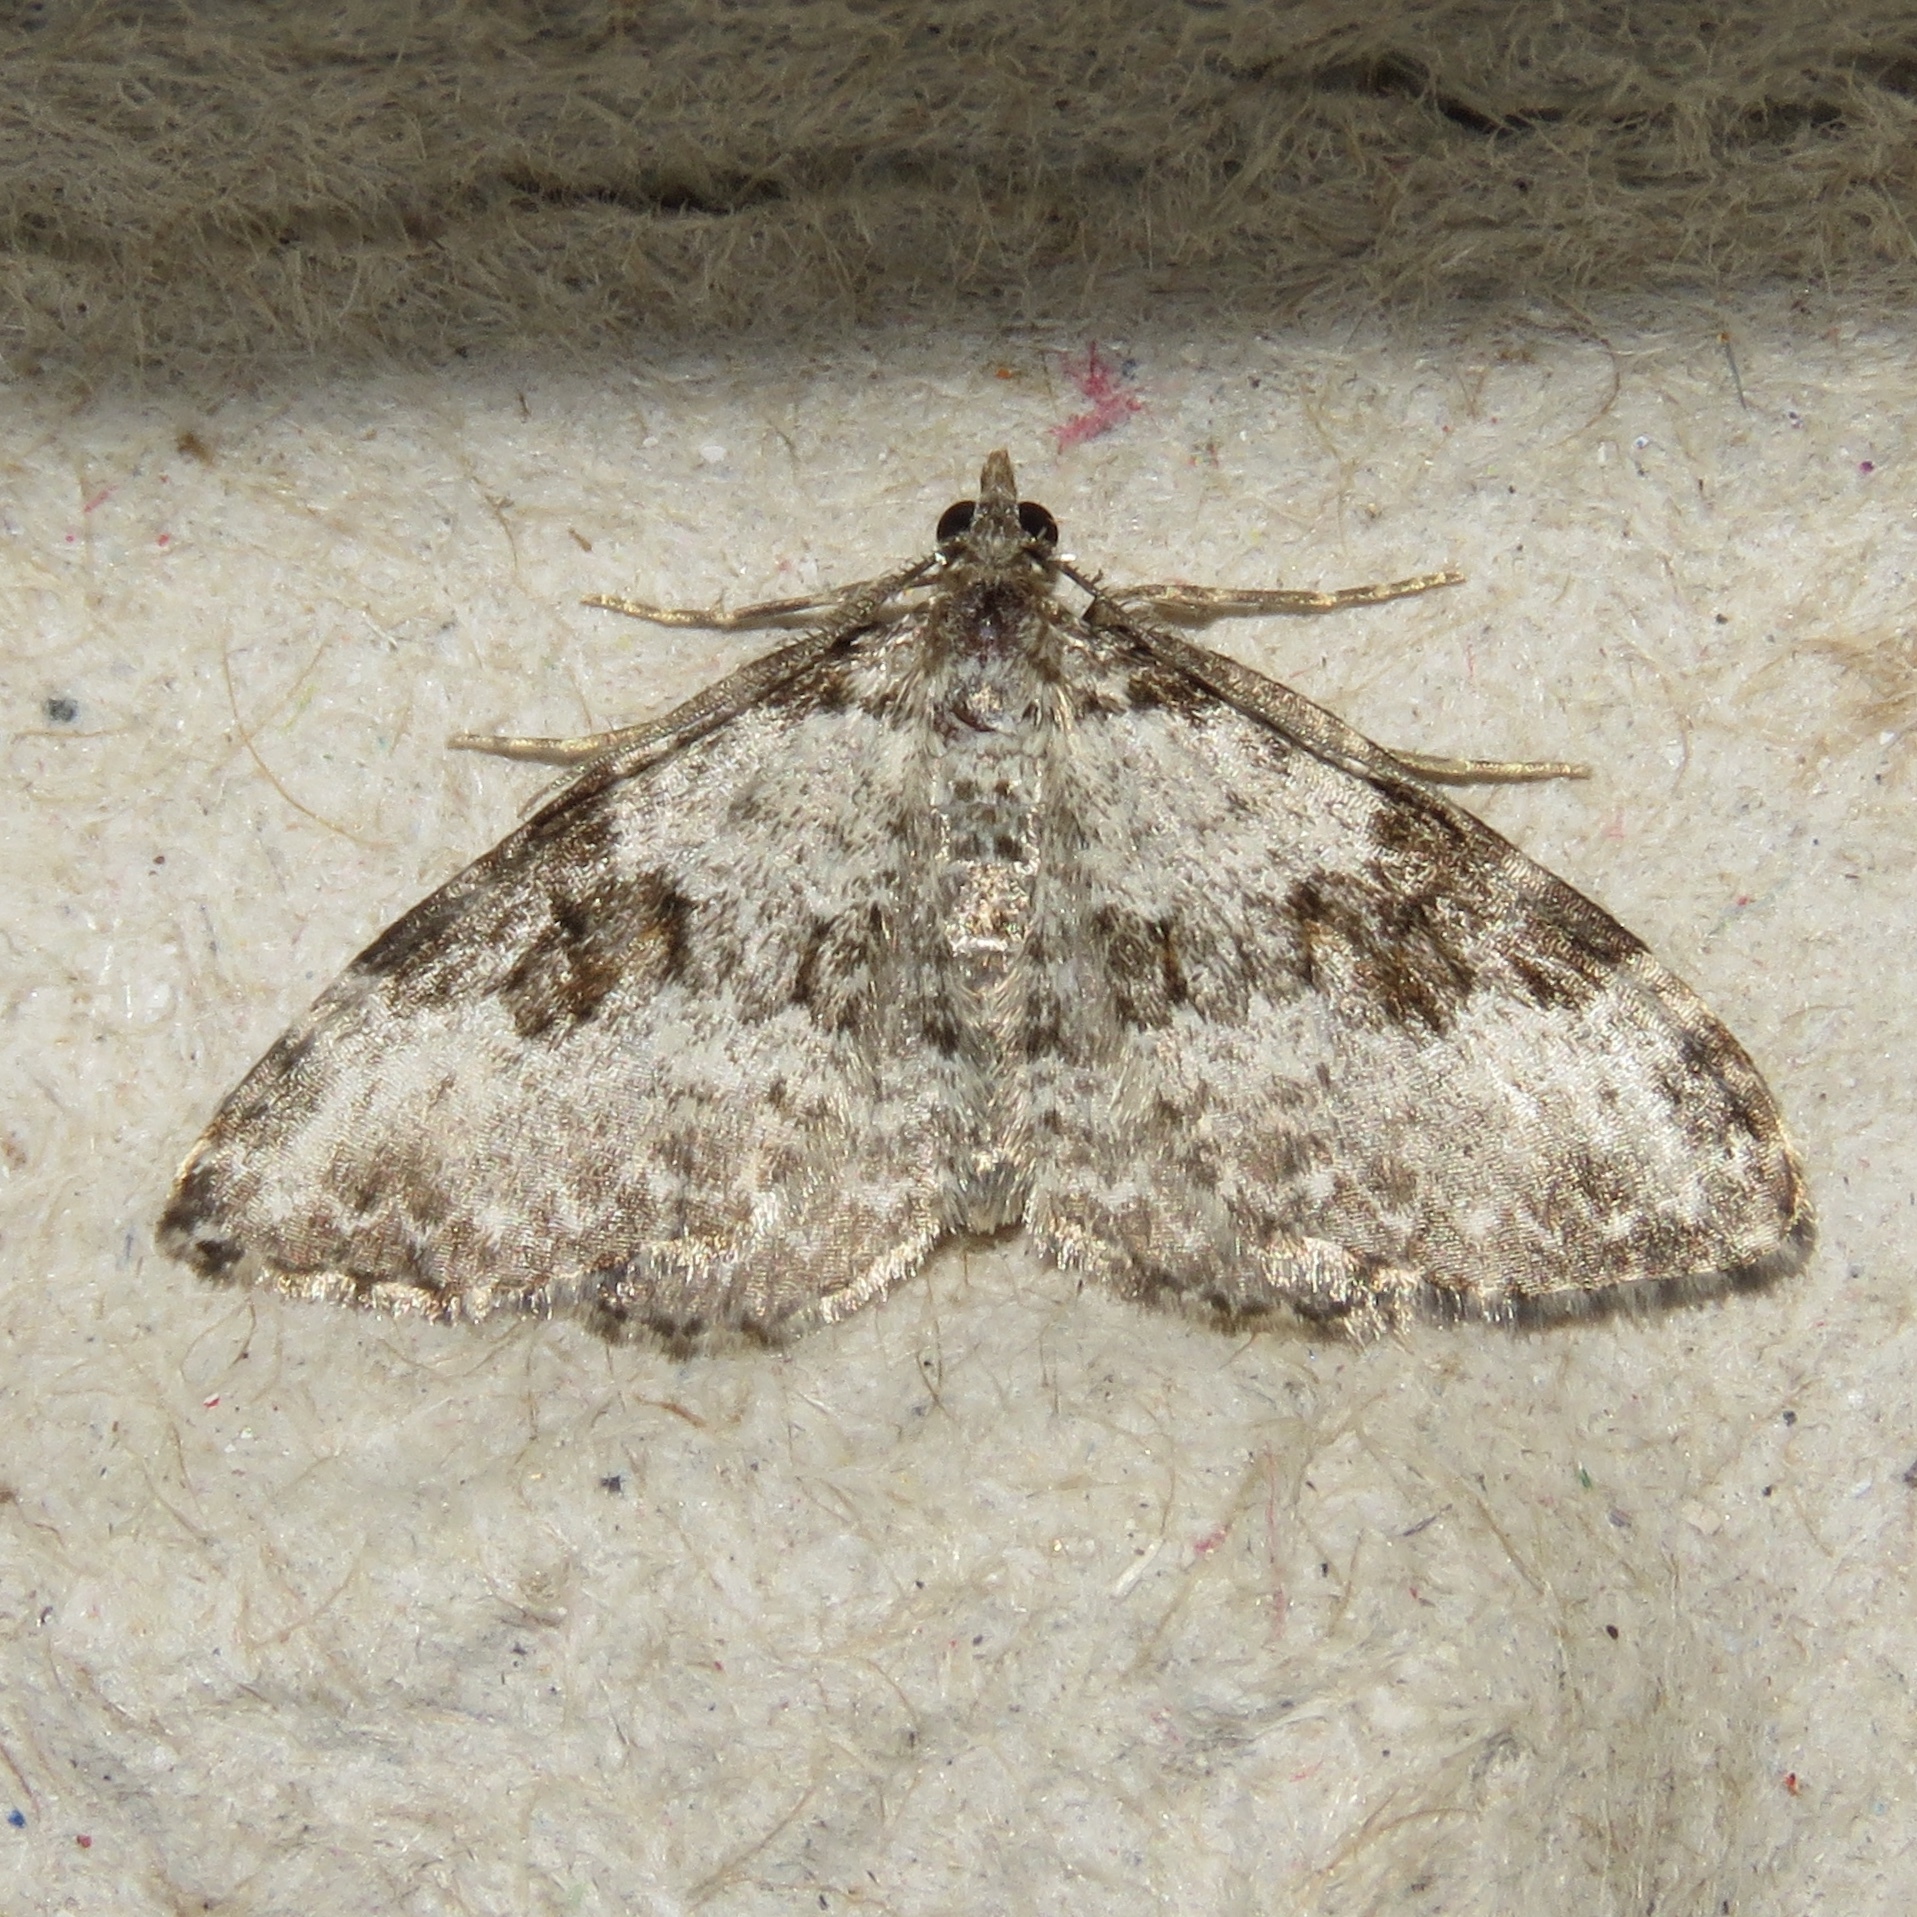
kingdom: Animalia
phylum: Arthropoda
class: Insecta
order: Lepidoptera
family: Geometridae
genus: Xanthorhoe
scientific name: Xanthorhoe iduata
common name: Broken-banded carpet
